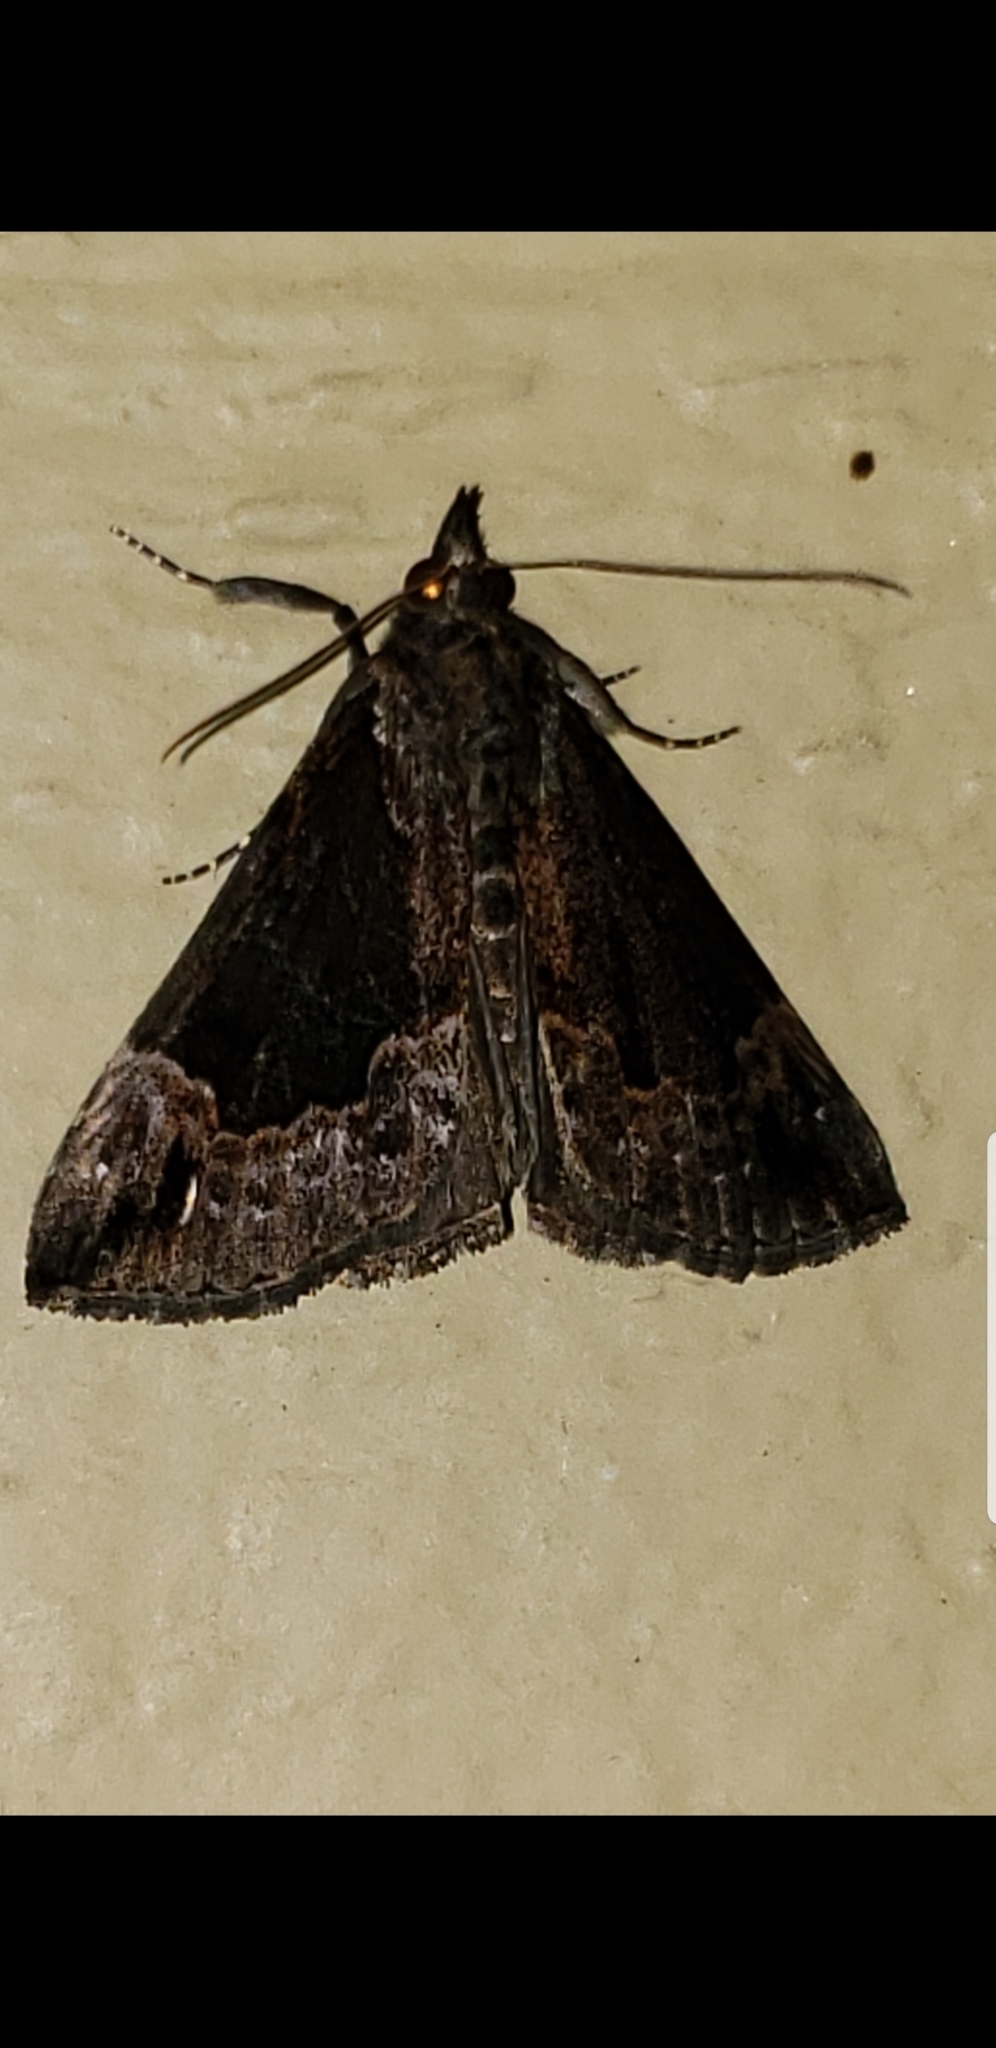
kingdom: Animalia
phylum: Arthropoda
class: Insecta
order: Lepidoptera
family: Erebidae
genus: Hypena
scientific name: Hypena baltimoralis
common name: Baltimore snout
